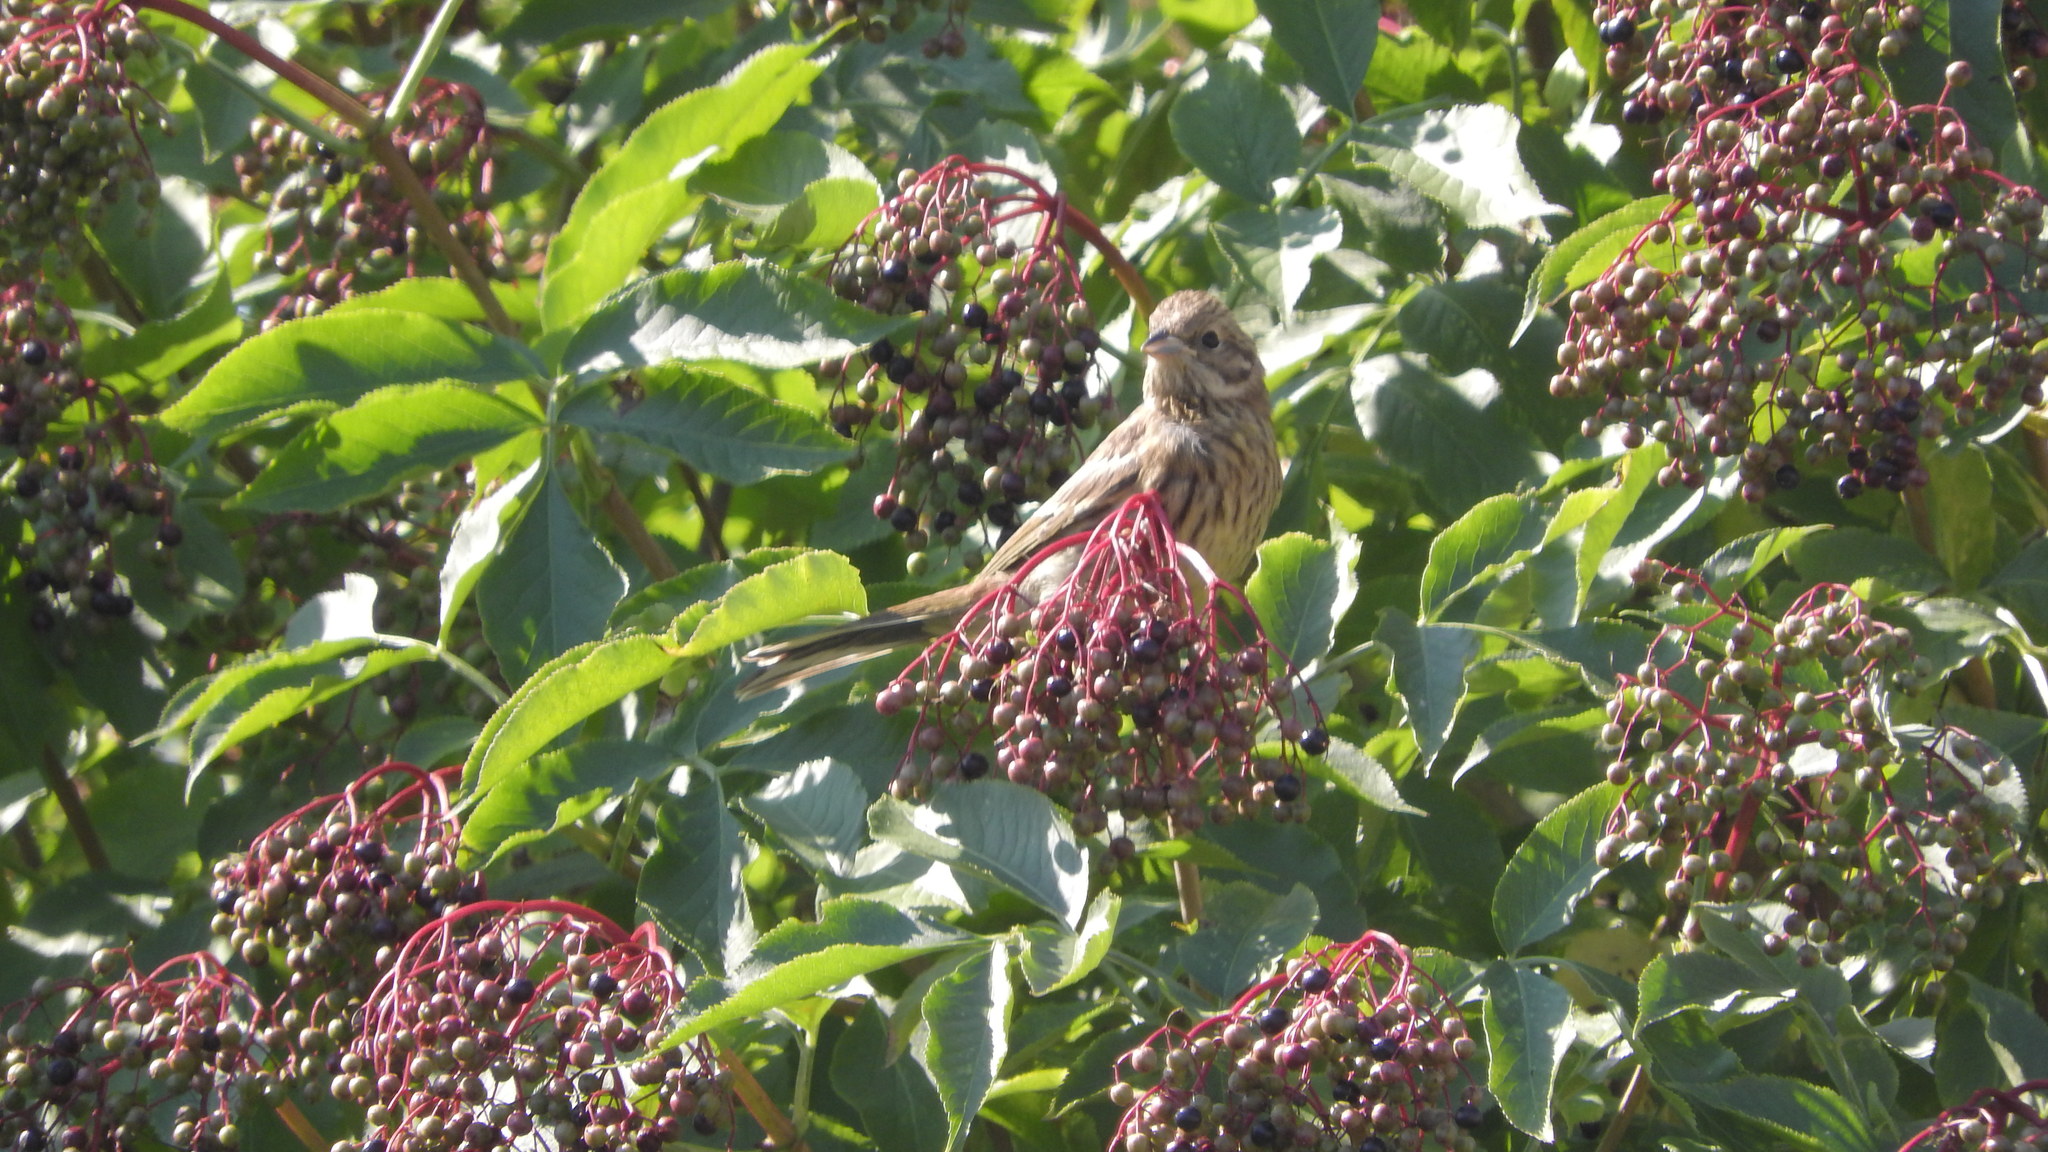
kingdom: Animalia
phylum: Chordata
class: Aves
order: Passeriformes
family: Emberizidae
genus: Emberiza
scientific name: Emberiza citrinella
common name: Yellowhammer
